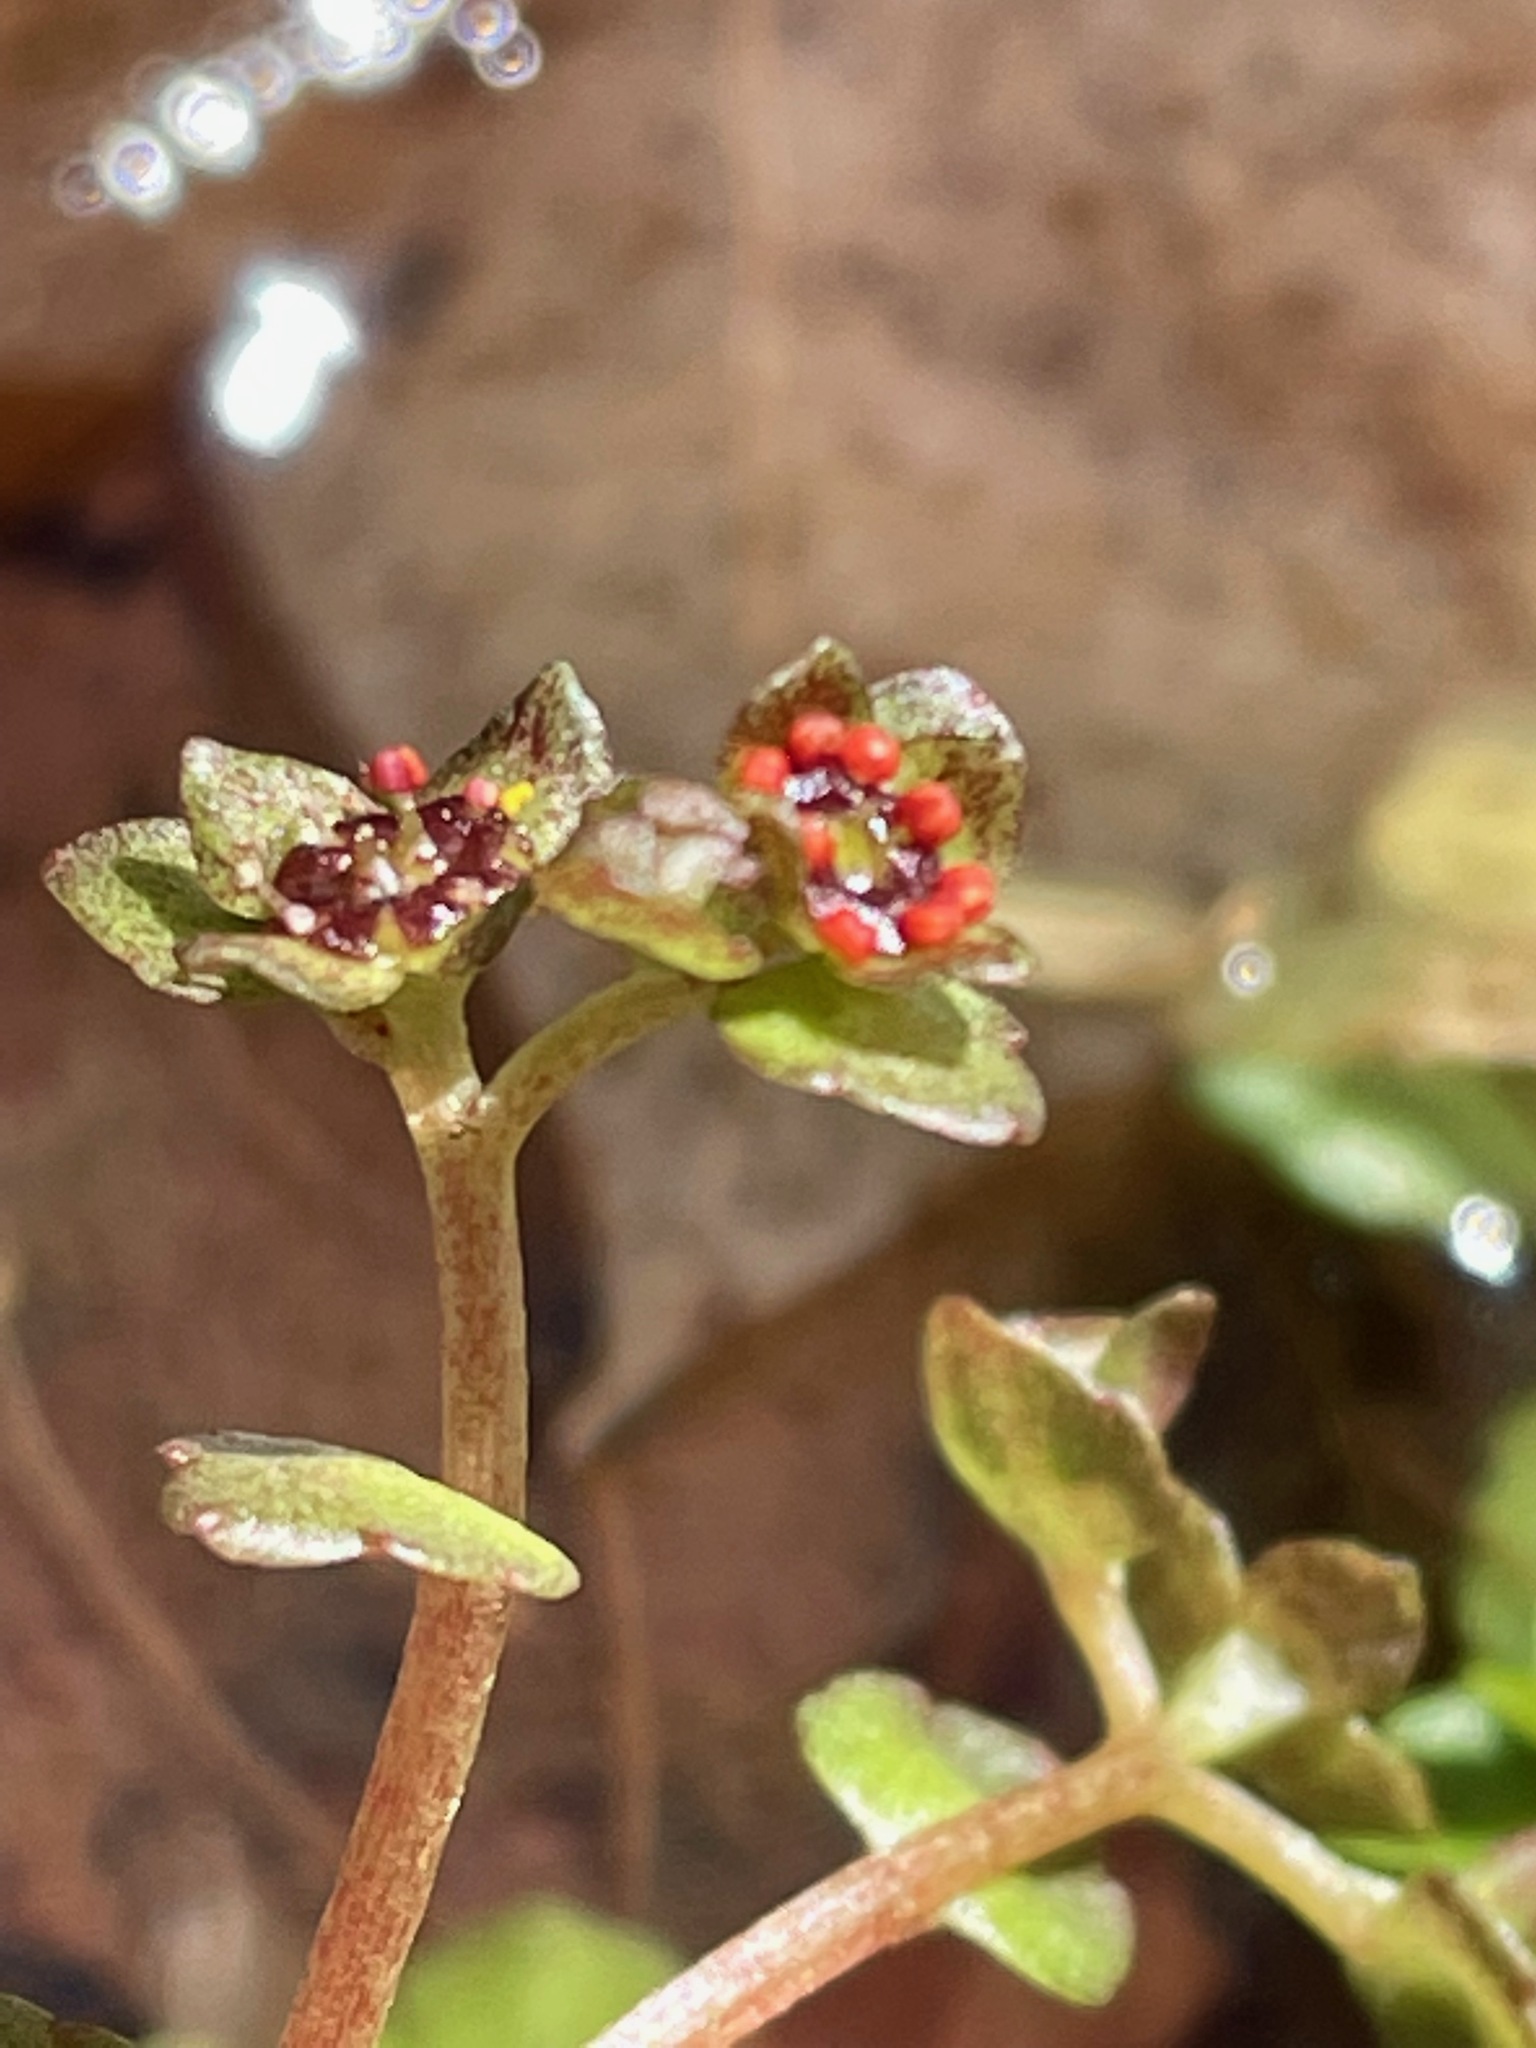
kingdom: Plantae
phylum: Tracheophyta
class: Magnoliopsida
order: Saxifragales
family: Saxifragaceae
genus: Chrysosplenium
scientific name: Chrysosplenium americanum
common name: American golden-saxifrage
